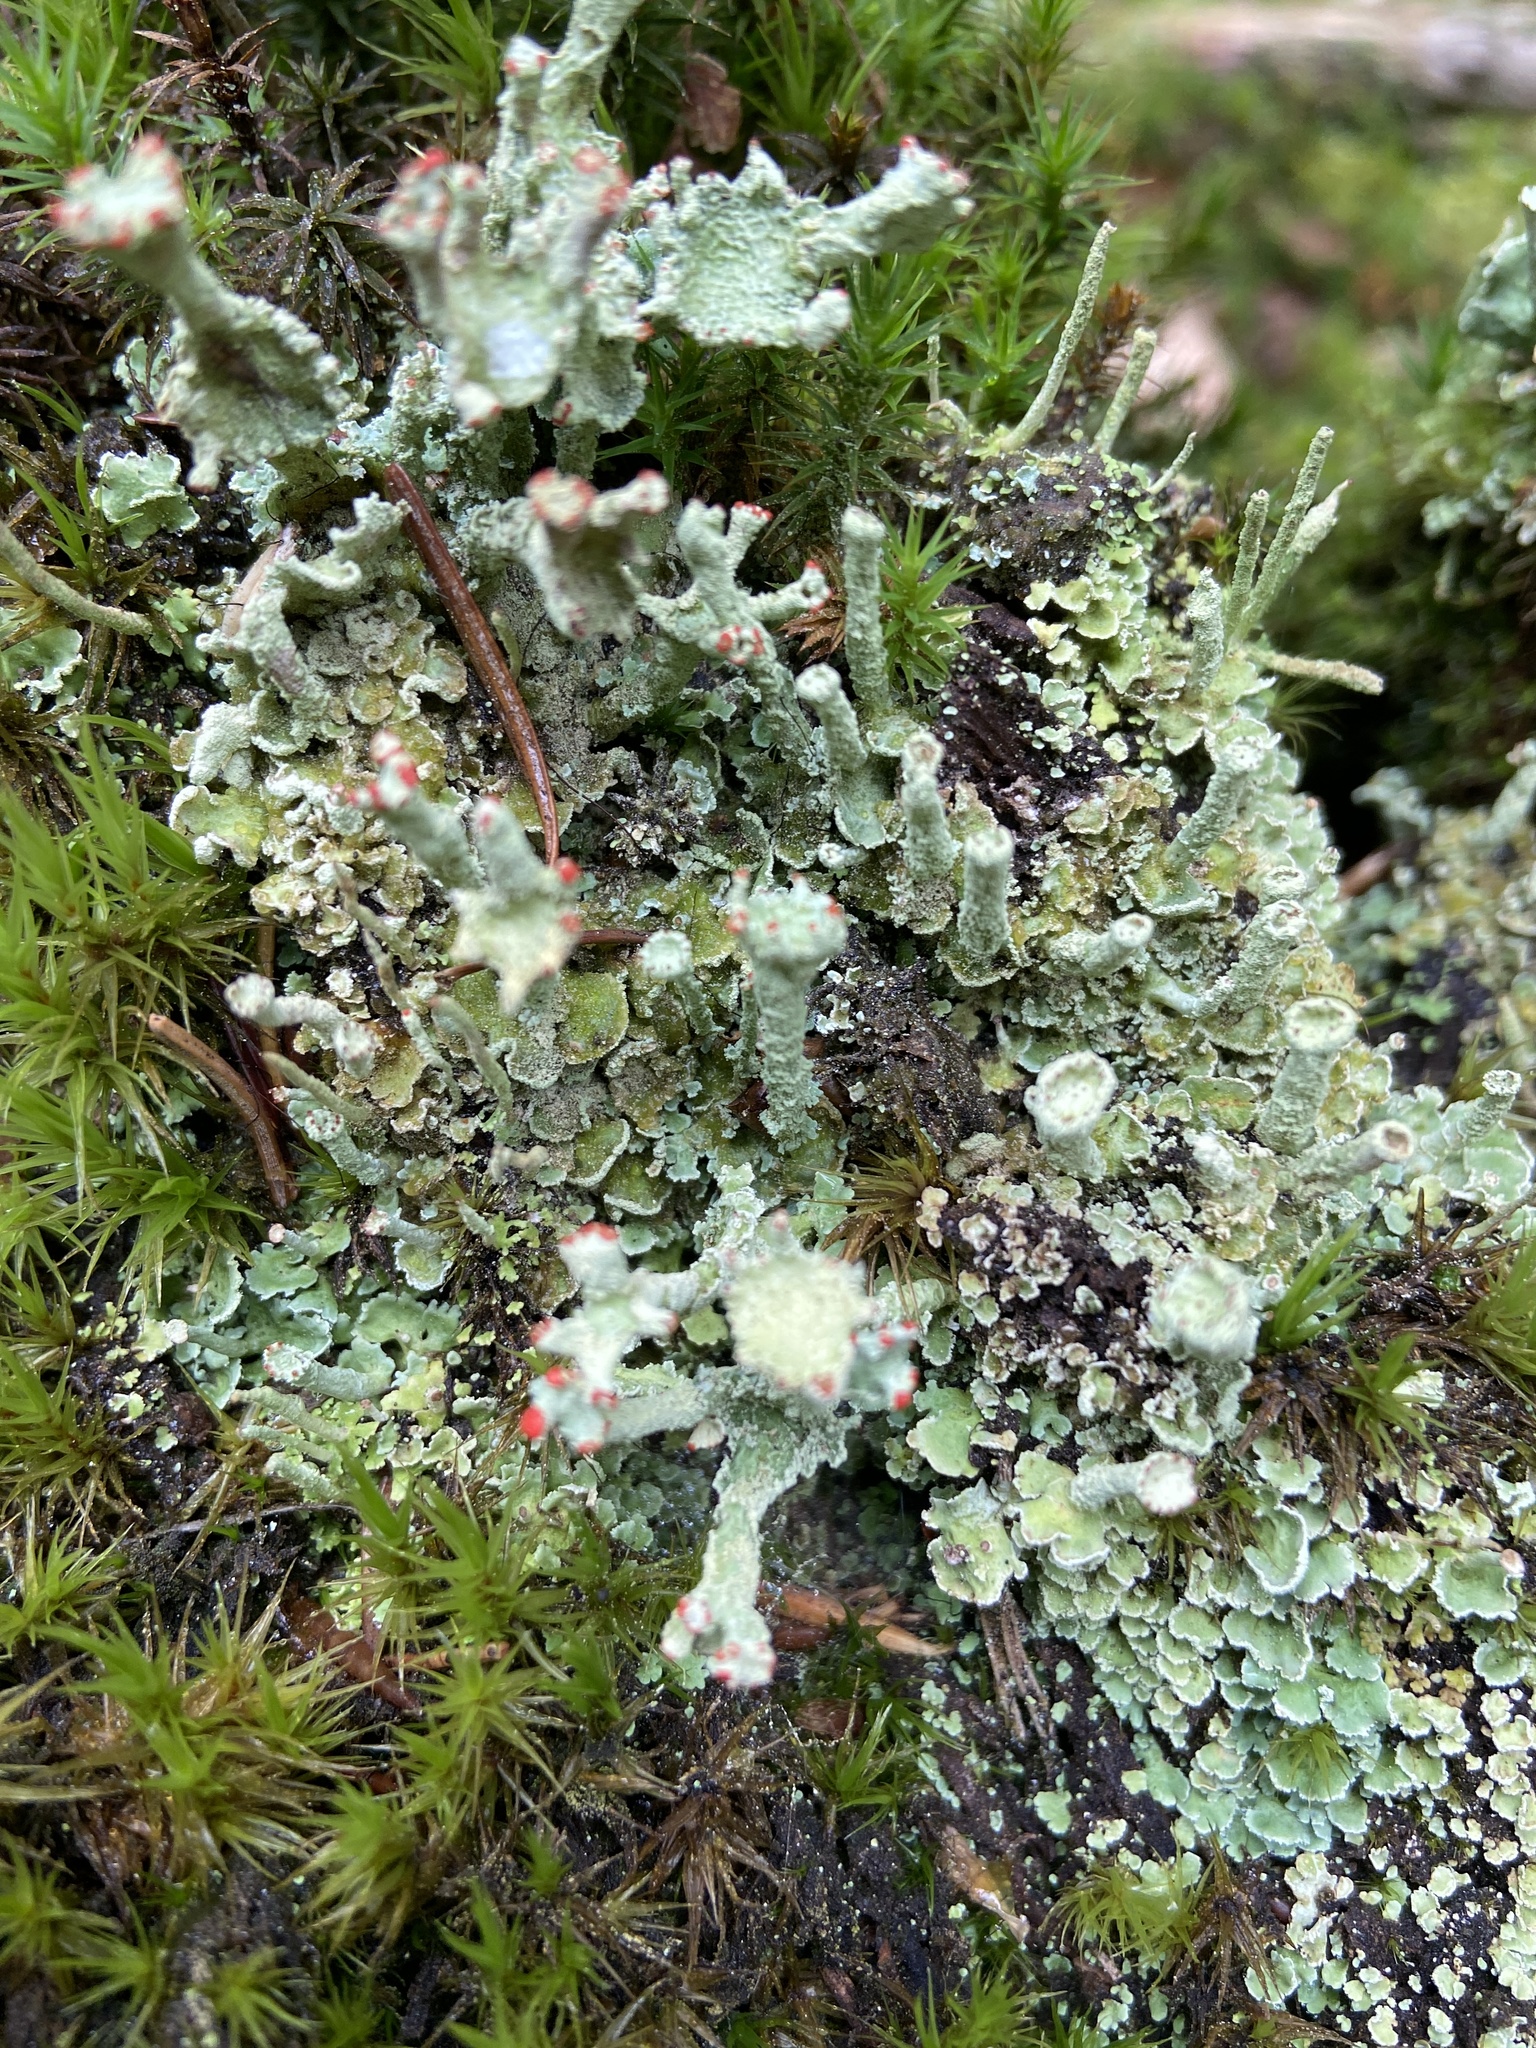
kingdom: Fungi
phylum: Ascomycota
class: Lecanoromycetes
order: Lecanorales
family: Cladoniaceae
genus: Cladonia
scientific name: Cladonia digitata
